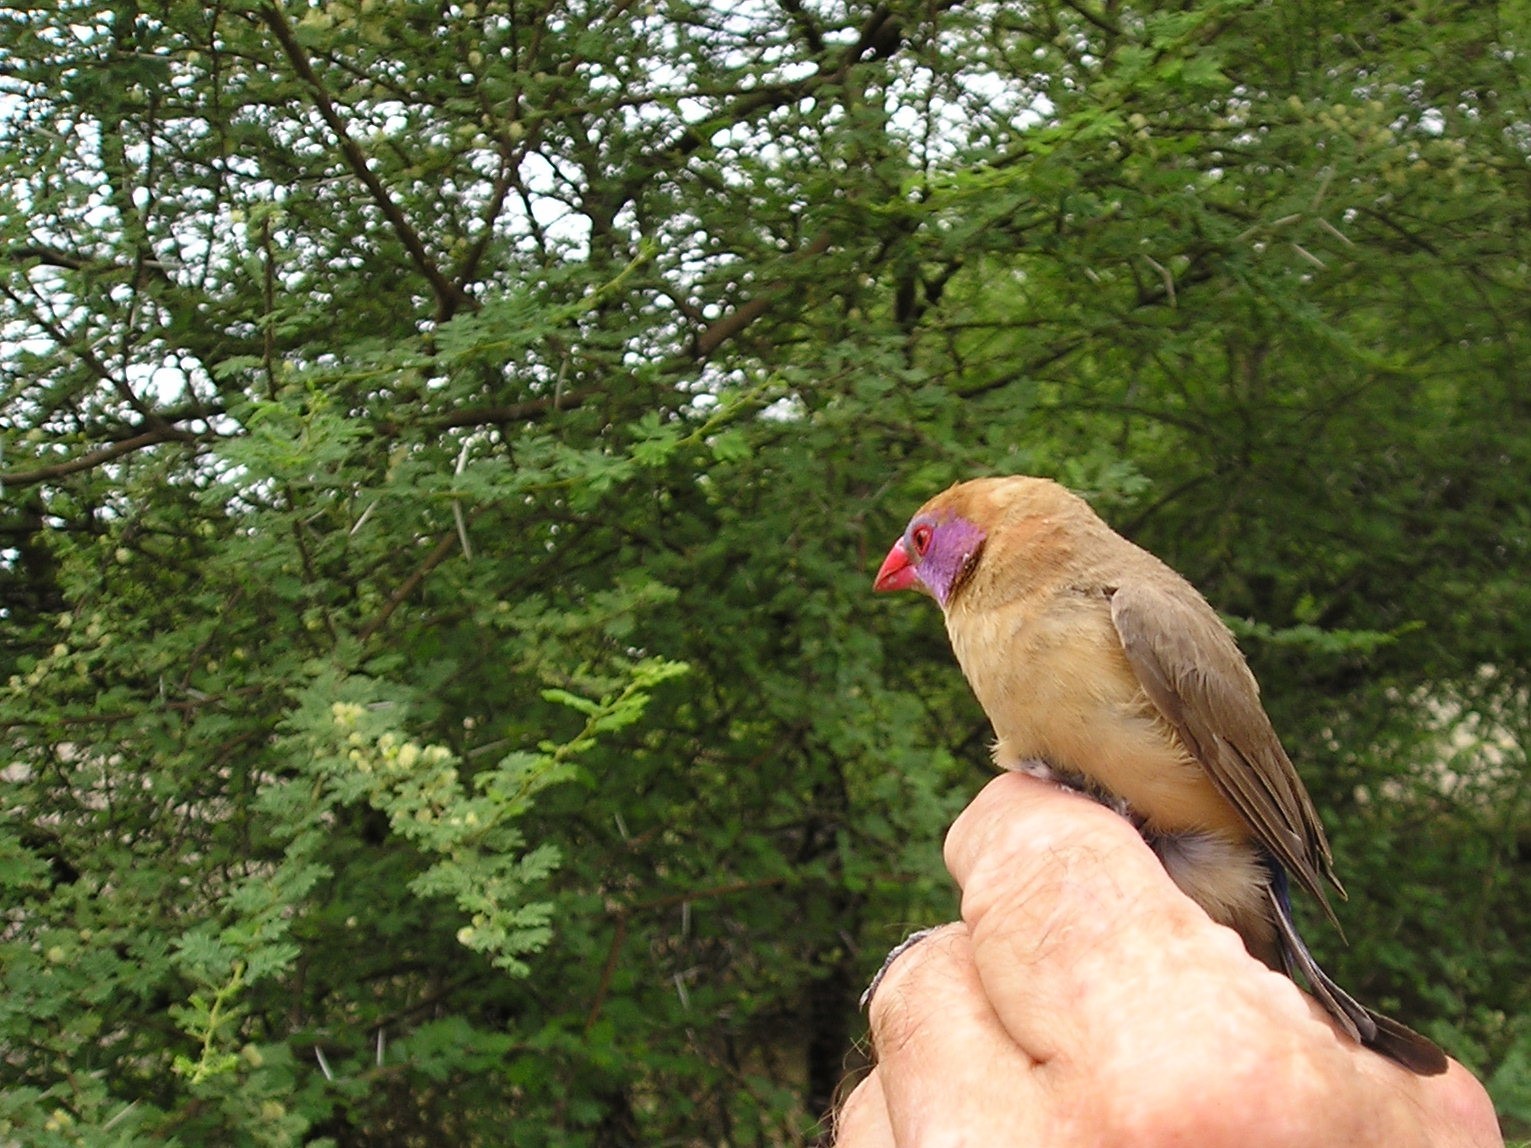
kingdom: Animalia
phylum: Chordata
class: Aves
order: Passeriformes
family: Estrildidae
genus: Uraeginthus
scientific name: Uraeginthus granatinus
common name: Violet-eared waxbill
